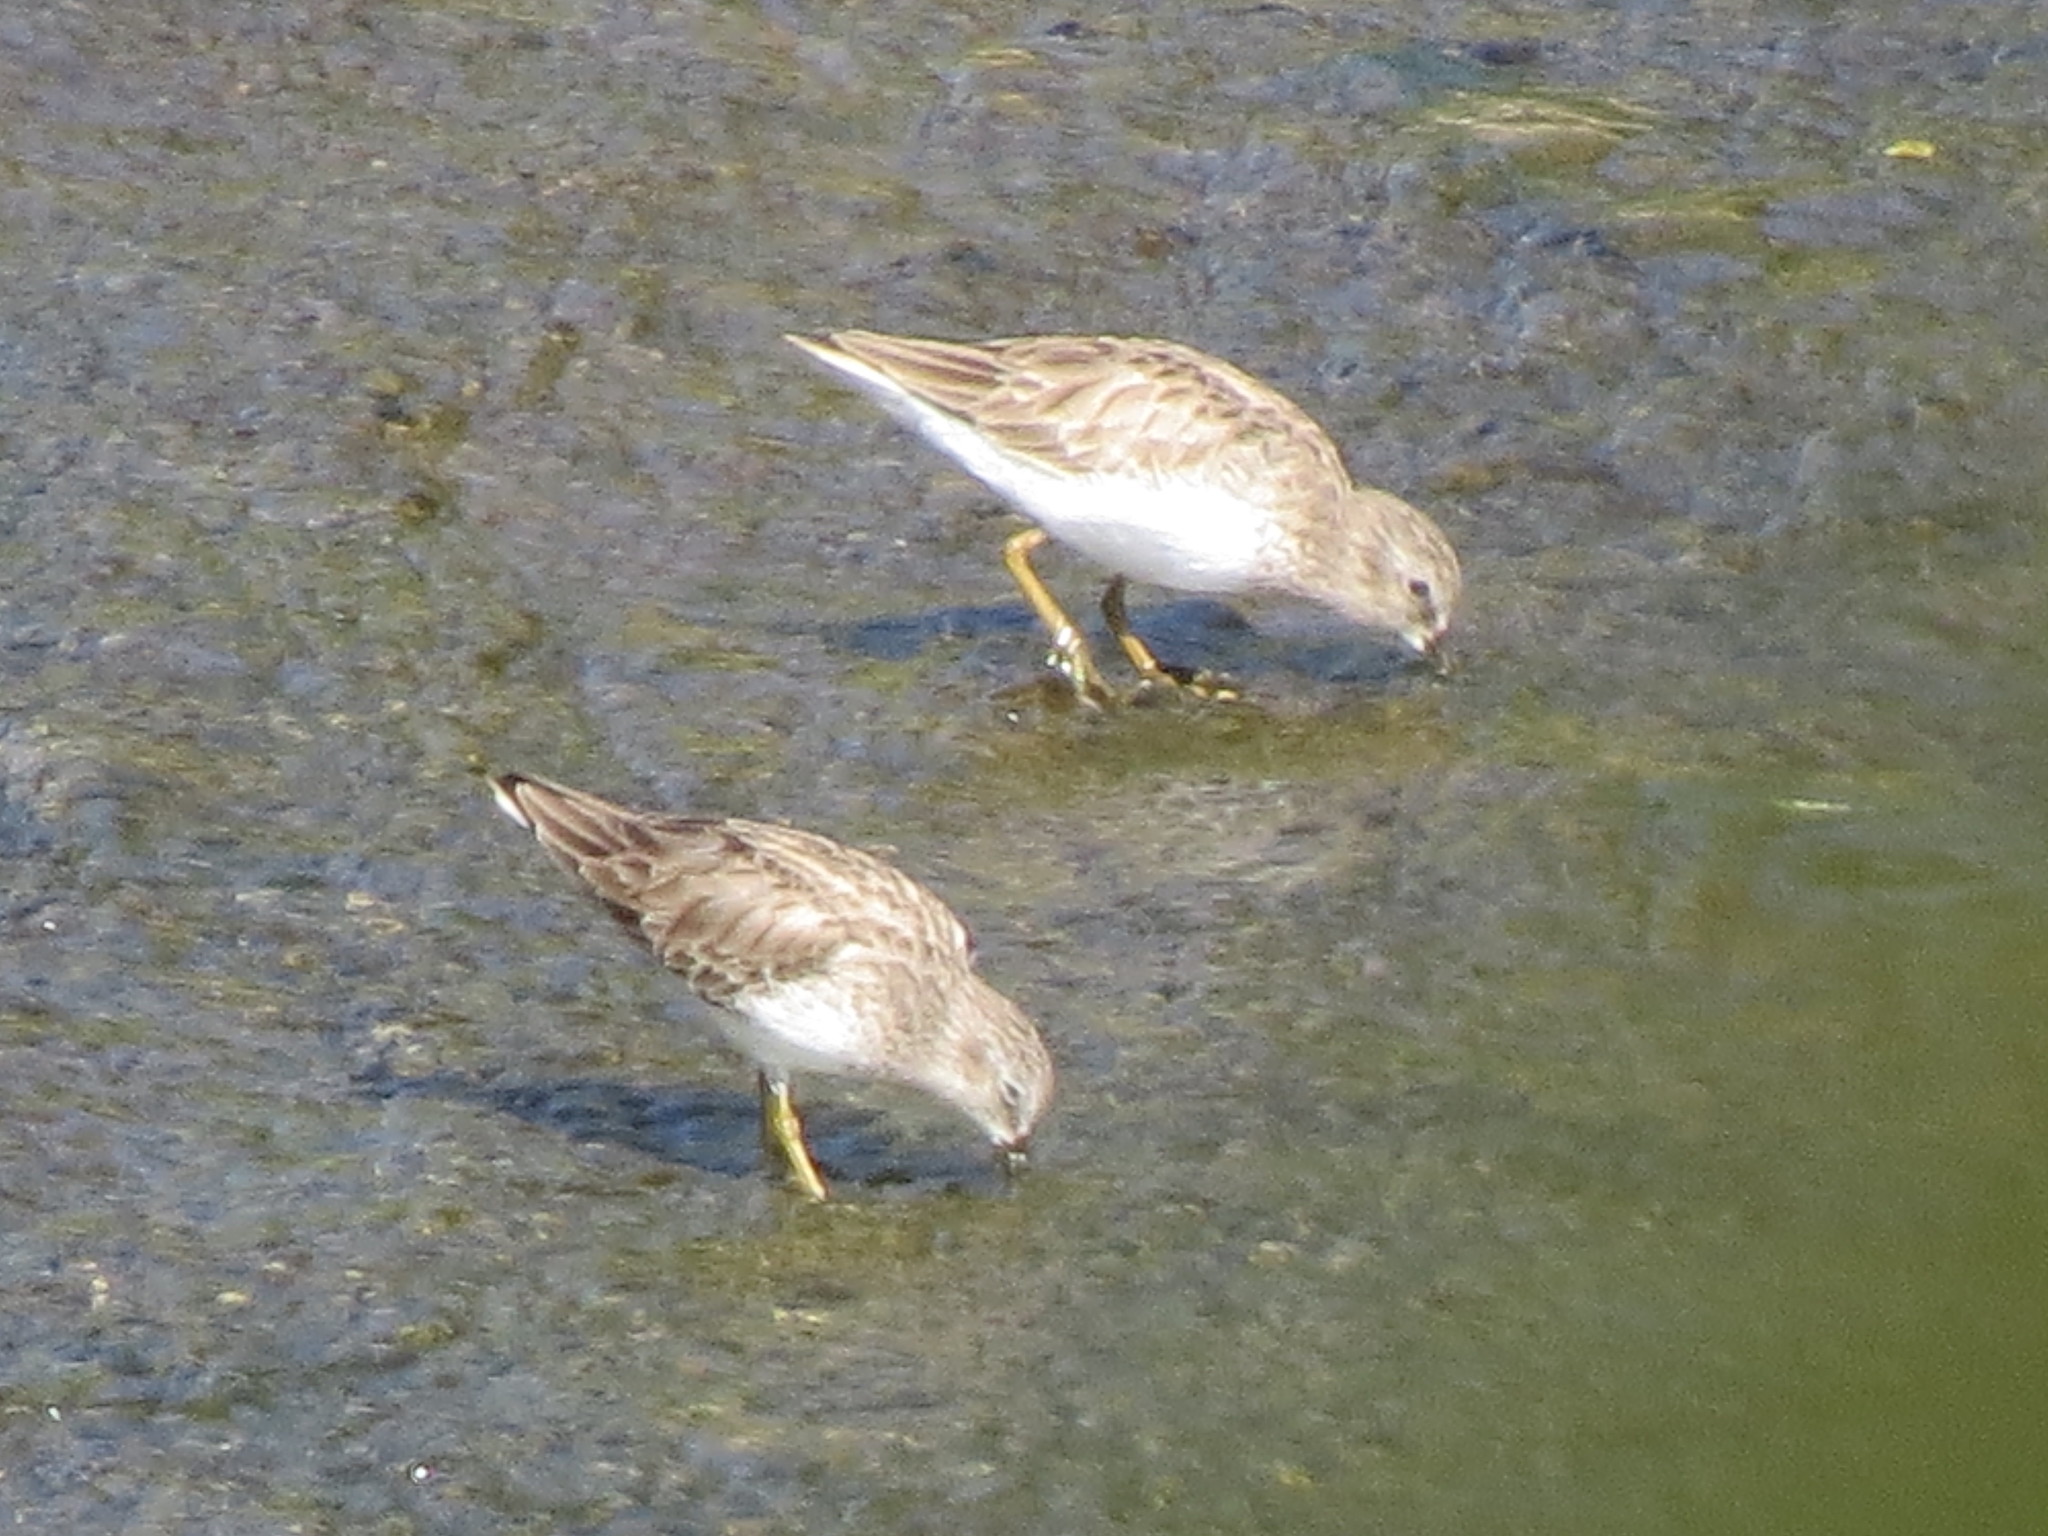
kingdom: Animalia
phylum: Chordata
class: Aves
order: Charadriiformes
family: Scolopacidae
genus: Calidris
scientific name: Calidris minutilla
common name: Least sandpiper
